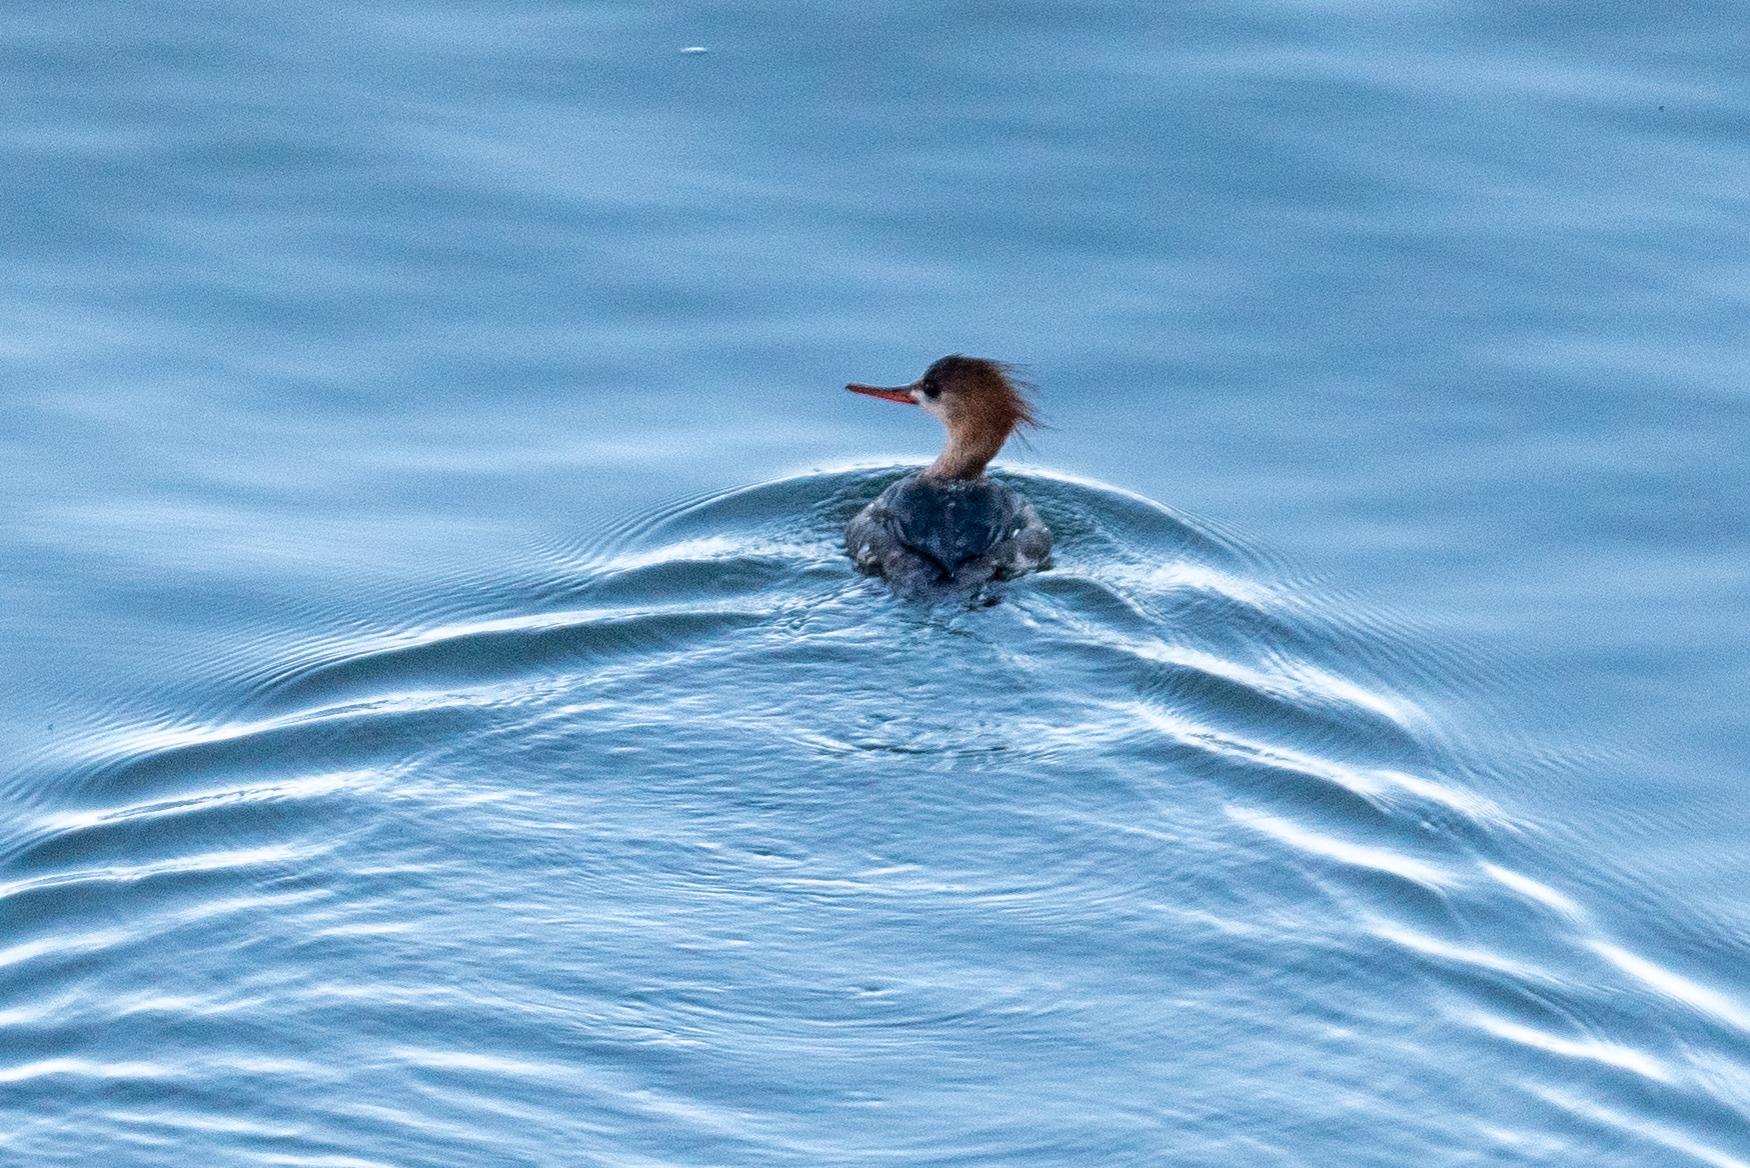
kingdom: Animalia
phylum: Chordata
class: Aves
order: Anseriformes
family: Anatidae
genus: Mergus
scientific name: Mergus serrator
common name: Red-breasted merganser
